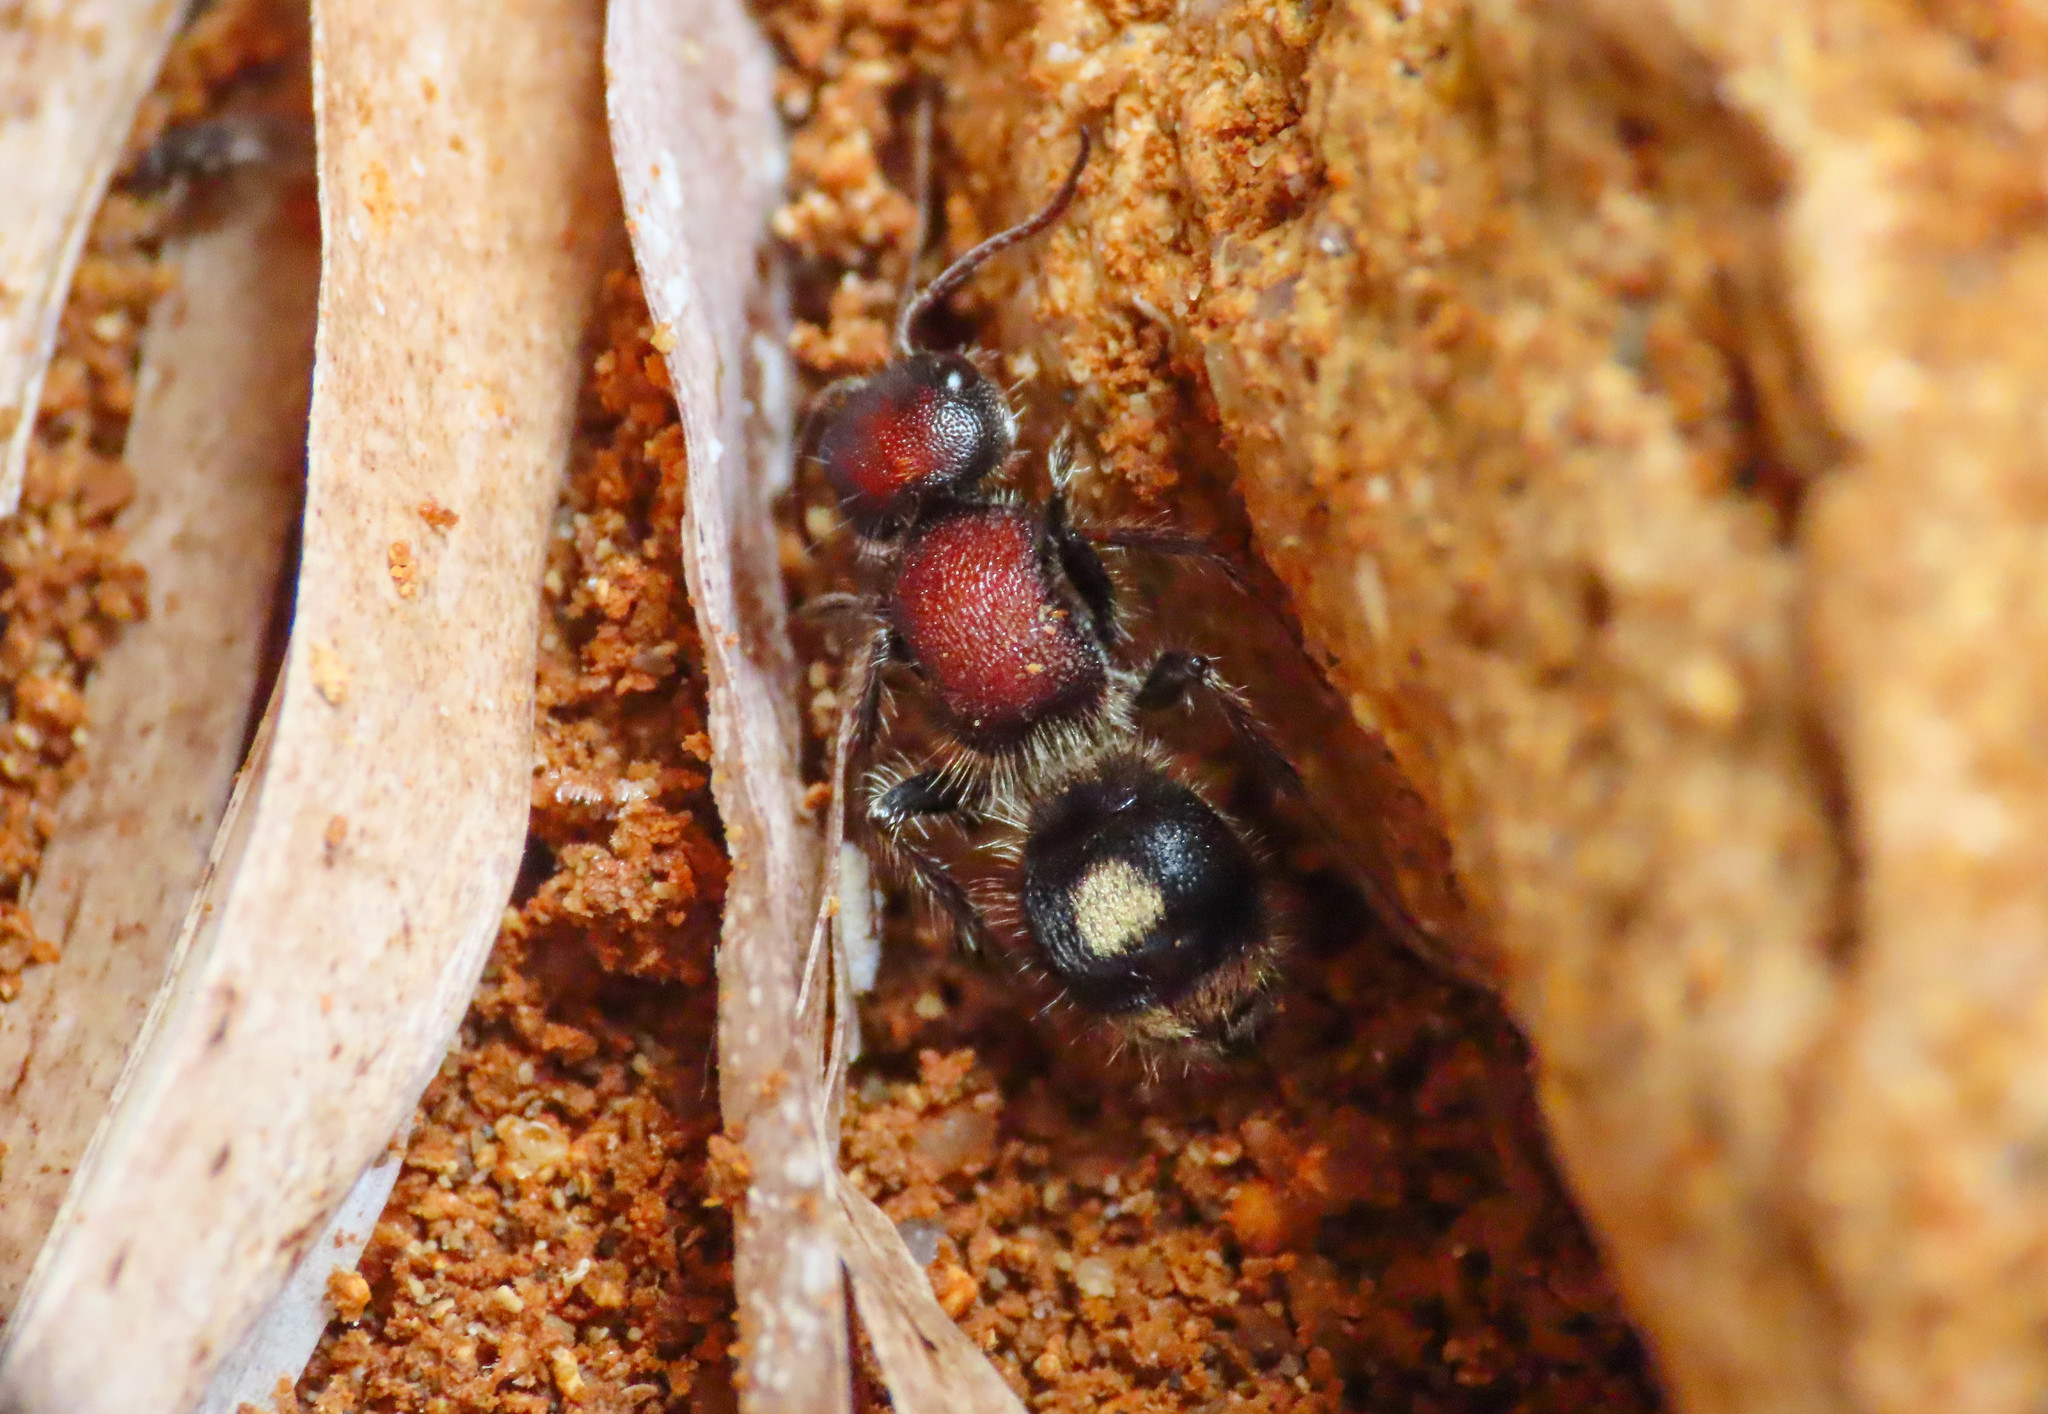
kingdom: Animalia
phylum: Arthropoda
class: Insecta
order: Hymenoptera
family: Mutillidae
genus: Sigilla
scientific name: Sigilla dorsata
